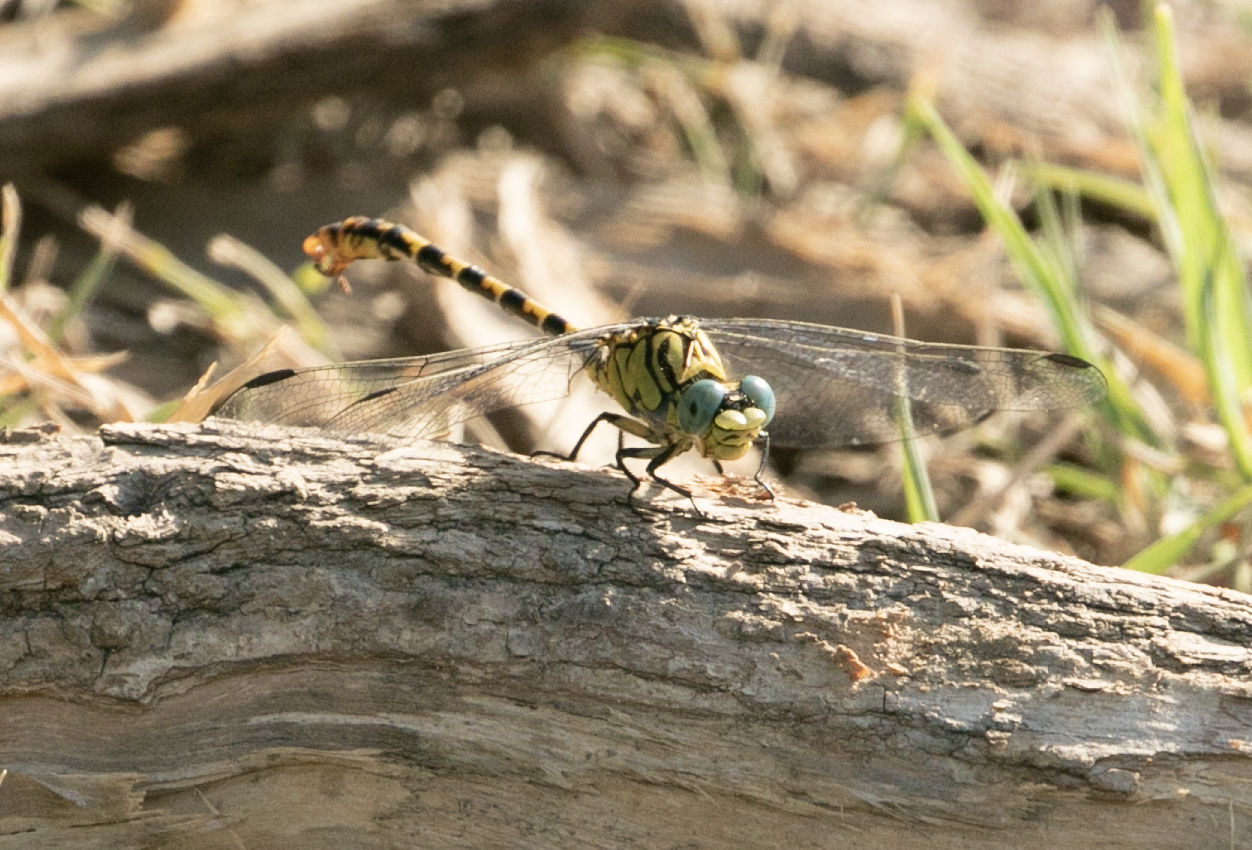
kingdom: Animalia
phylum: Arthropoda
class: Insecta
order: Odonata
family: Gomphidae
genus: Onychogomphus
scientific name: Onychogomphus forcipatus
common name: Small pincertail
